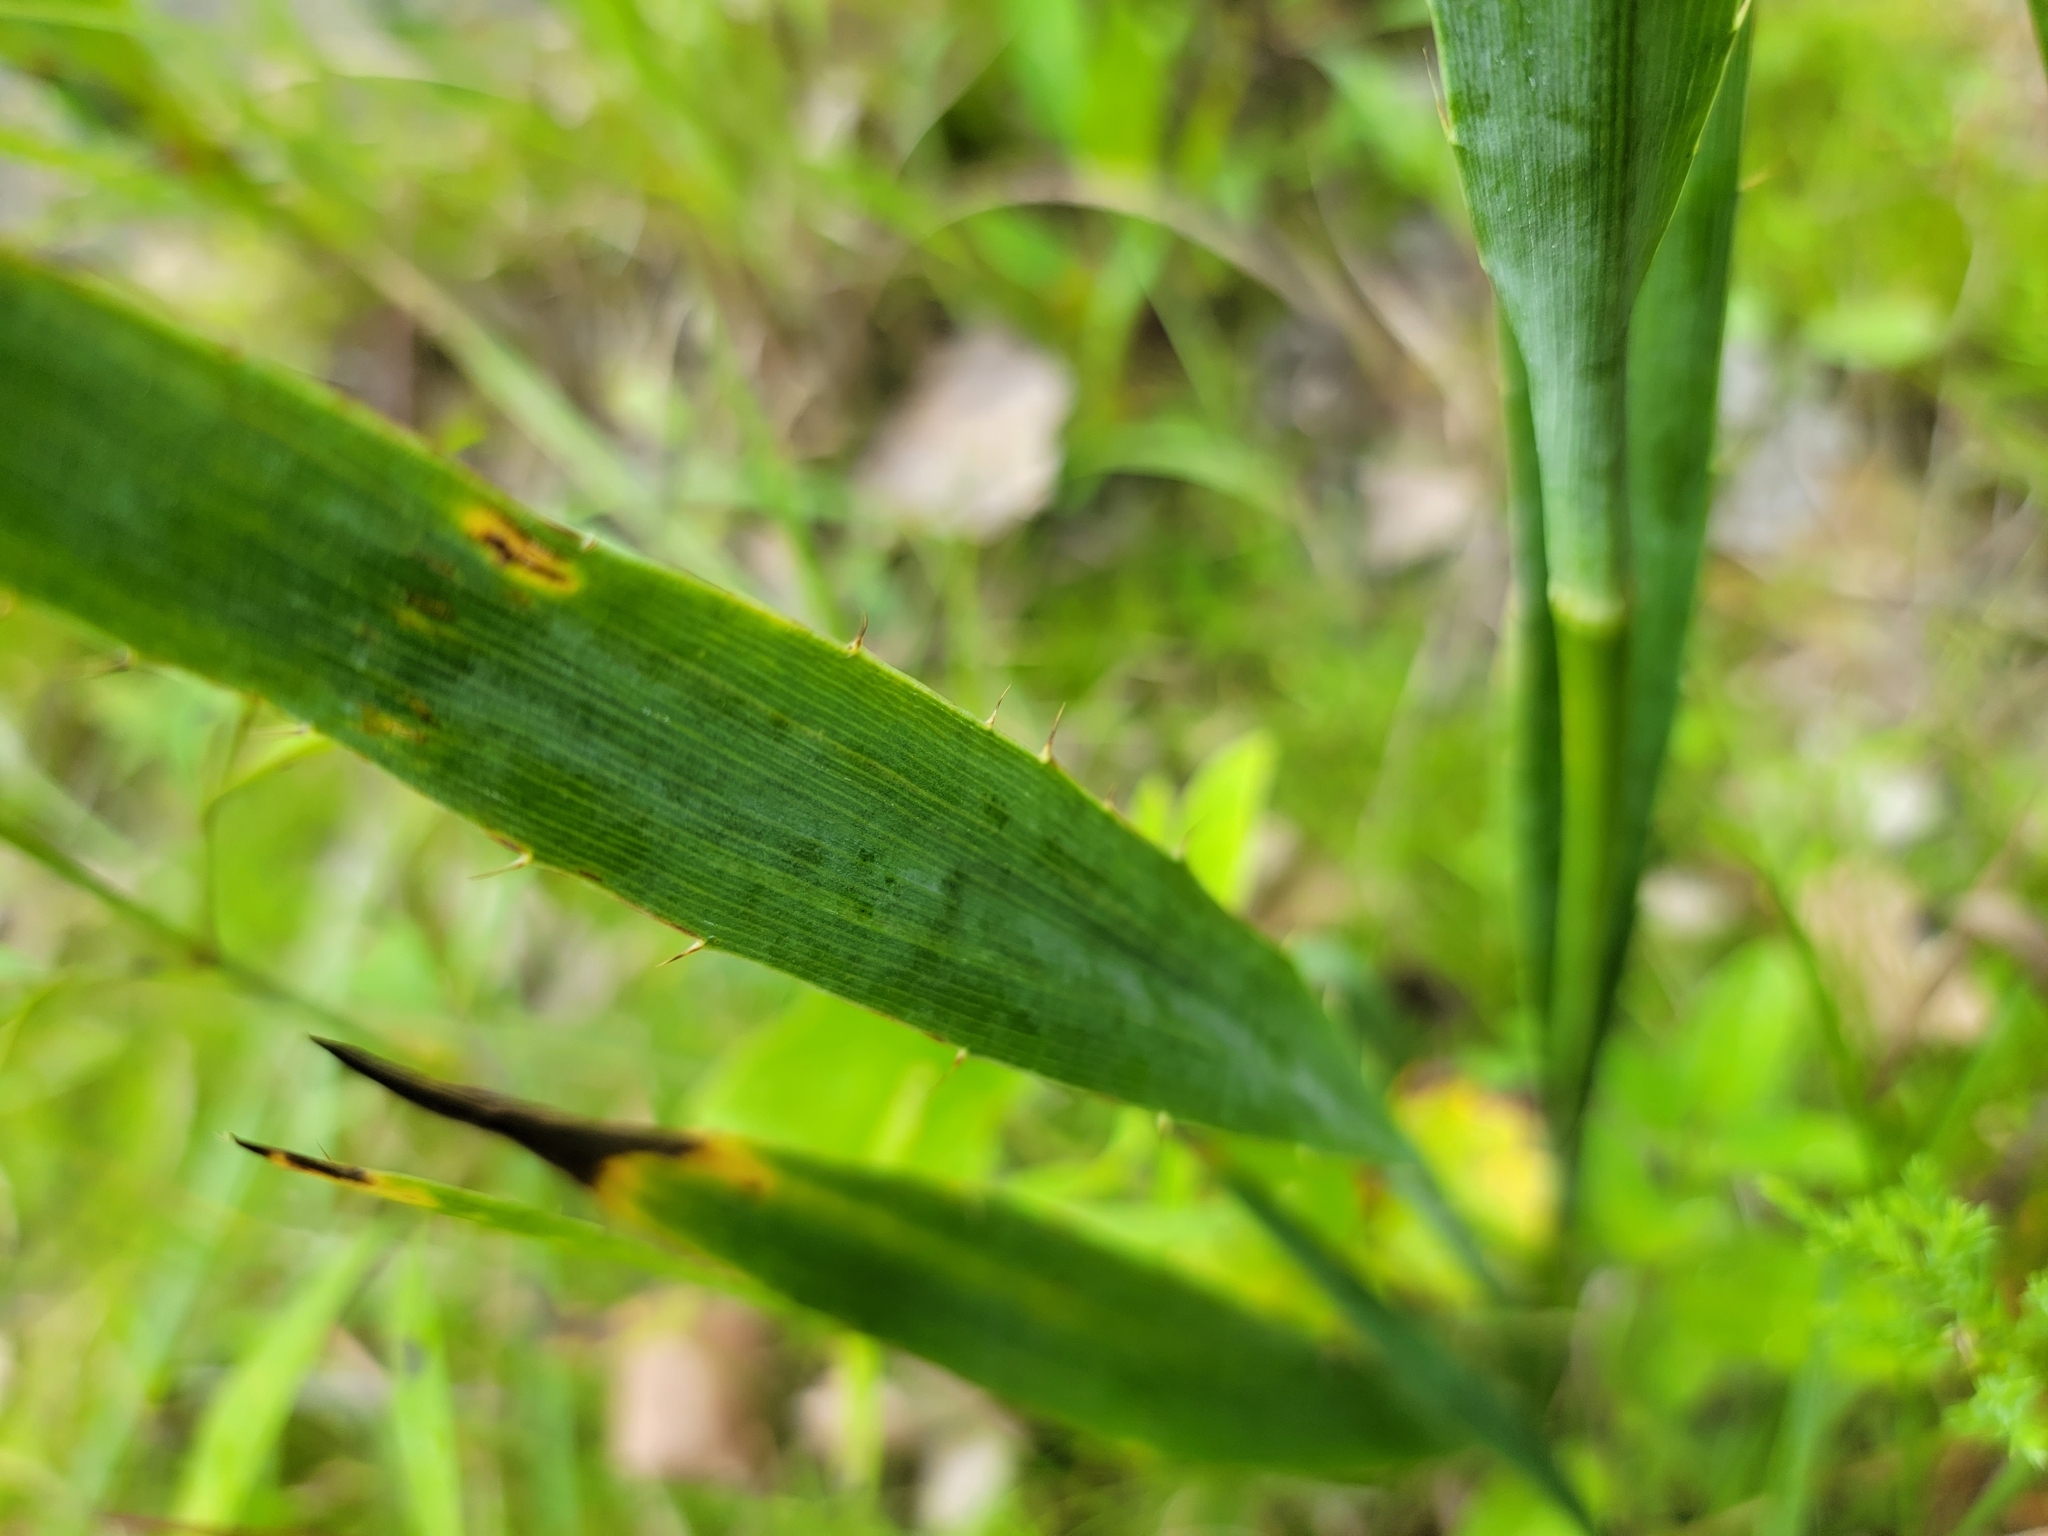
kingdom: Plantae
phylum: Tracheophyta
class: Magnoliopsida
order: Apiales
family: Apiaceae
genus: Eryngium
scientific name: Eryngium yuccifolium
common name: Button eryngo
